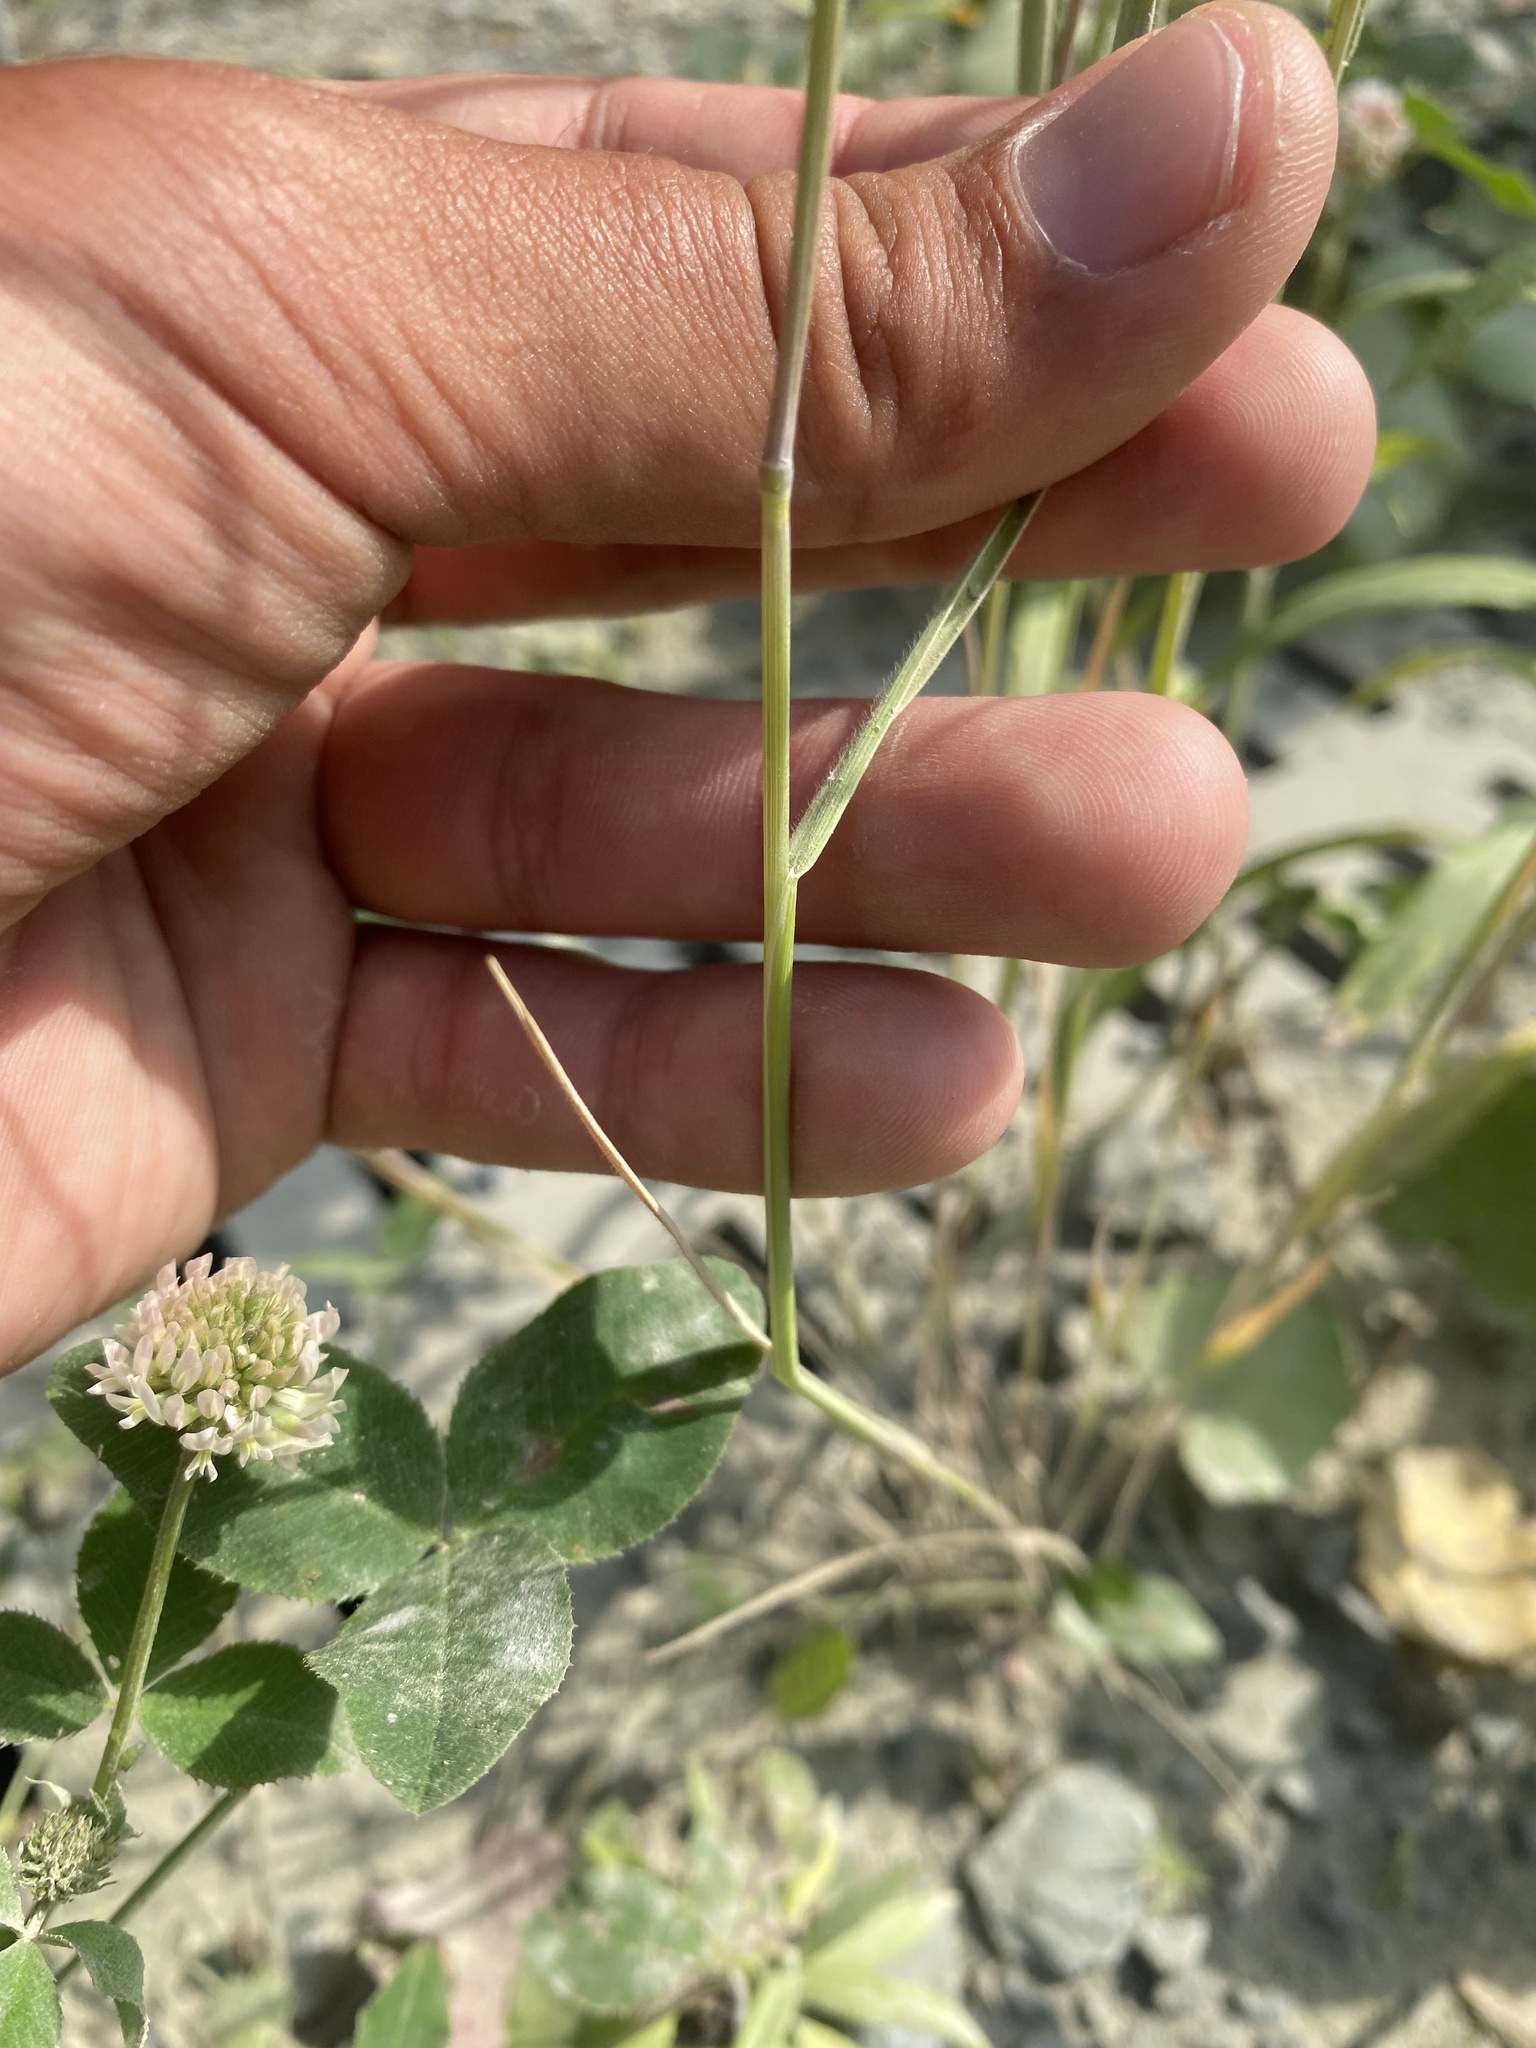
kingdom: Plantae
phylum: Tracheophyta
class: Liliopsida
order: Poales
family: Poaceae
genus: Hordeum
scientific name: Hordeum jubatum
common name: Foxtail barley
